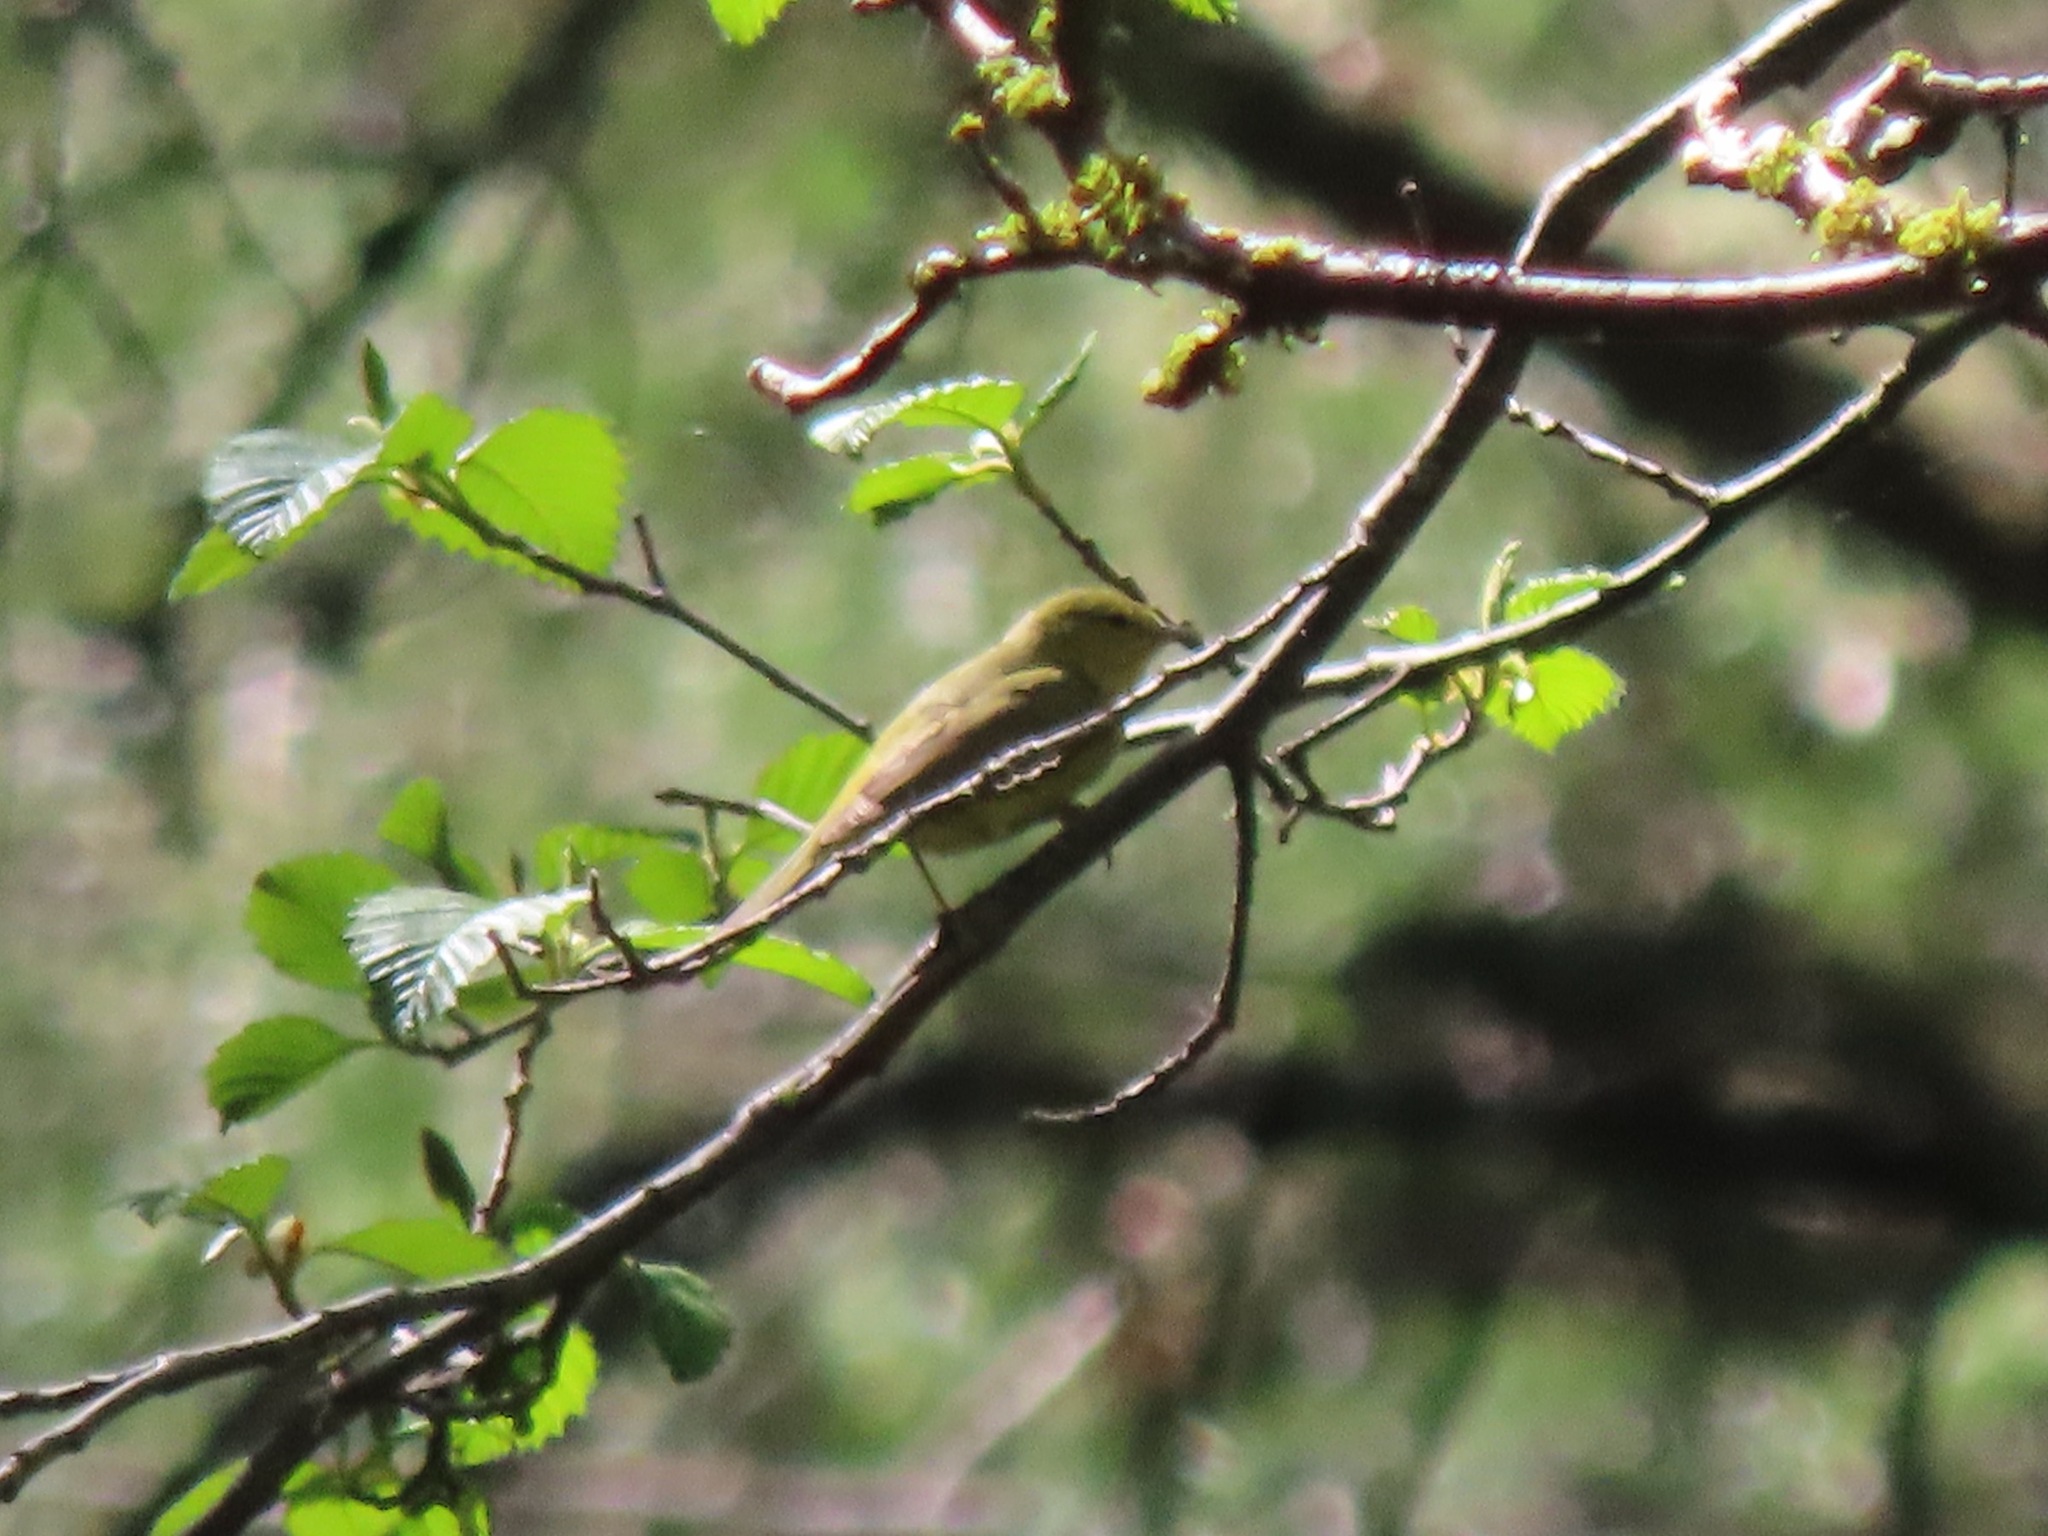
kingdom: Animalia
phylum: Chordata
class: Aves
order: Passeriformes
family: Parulidae
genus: Leiothlypis
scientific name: Leiothlypis celata
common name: Orange-crowned warbler
